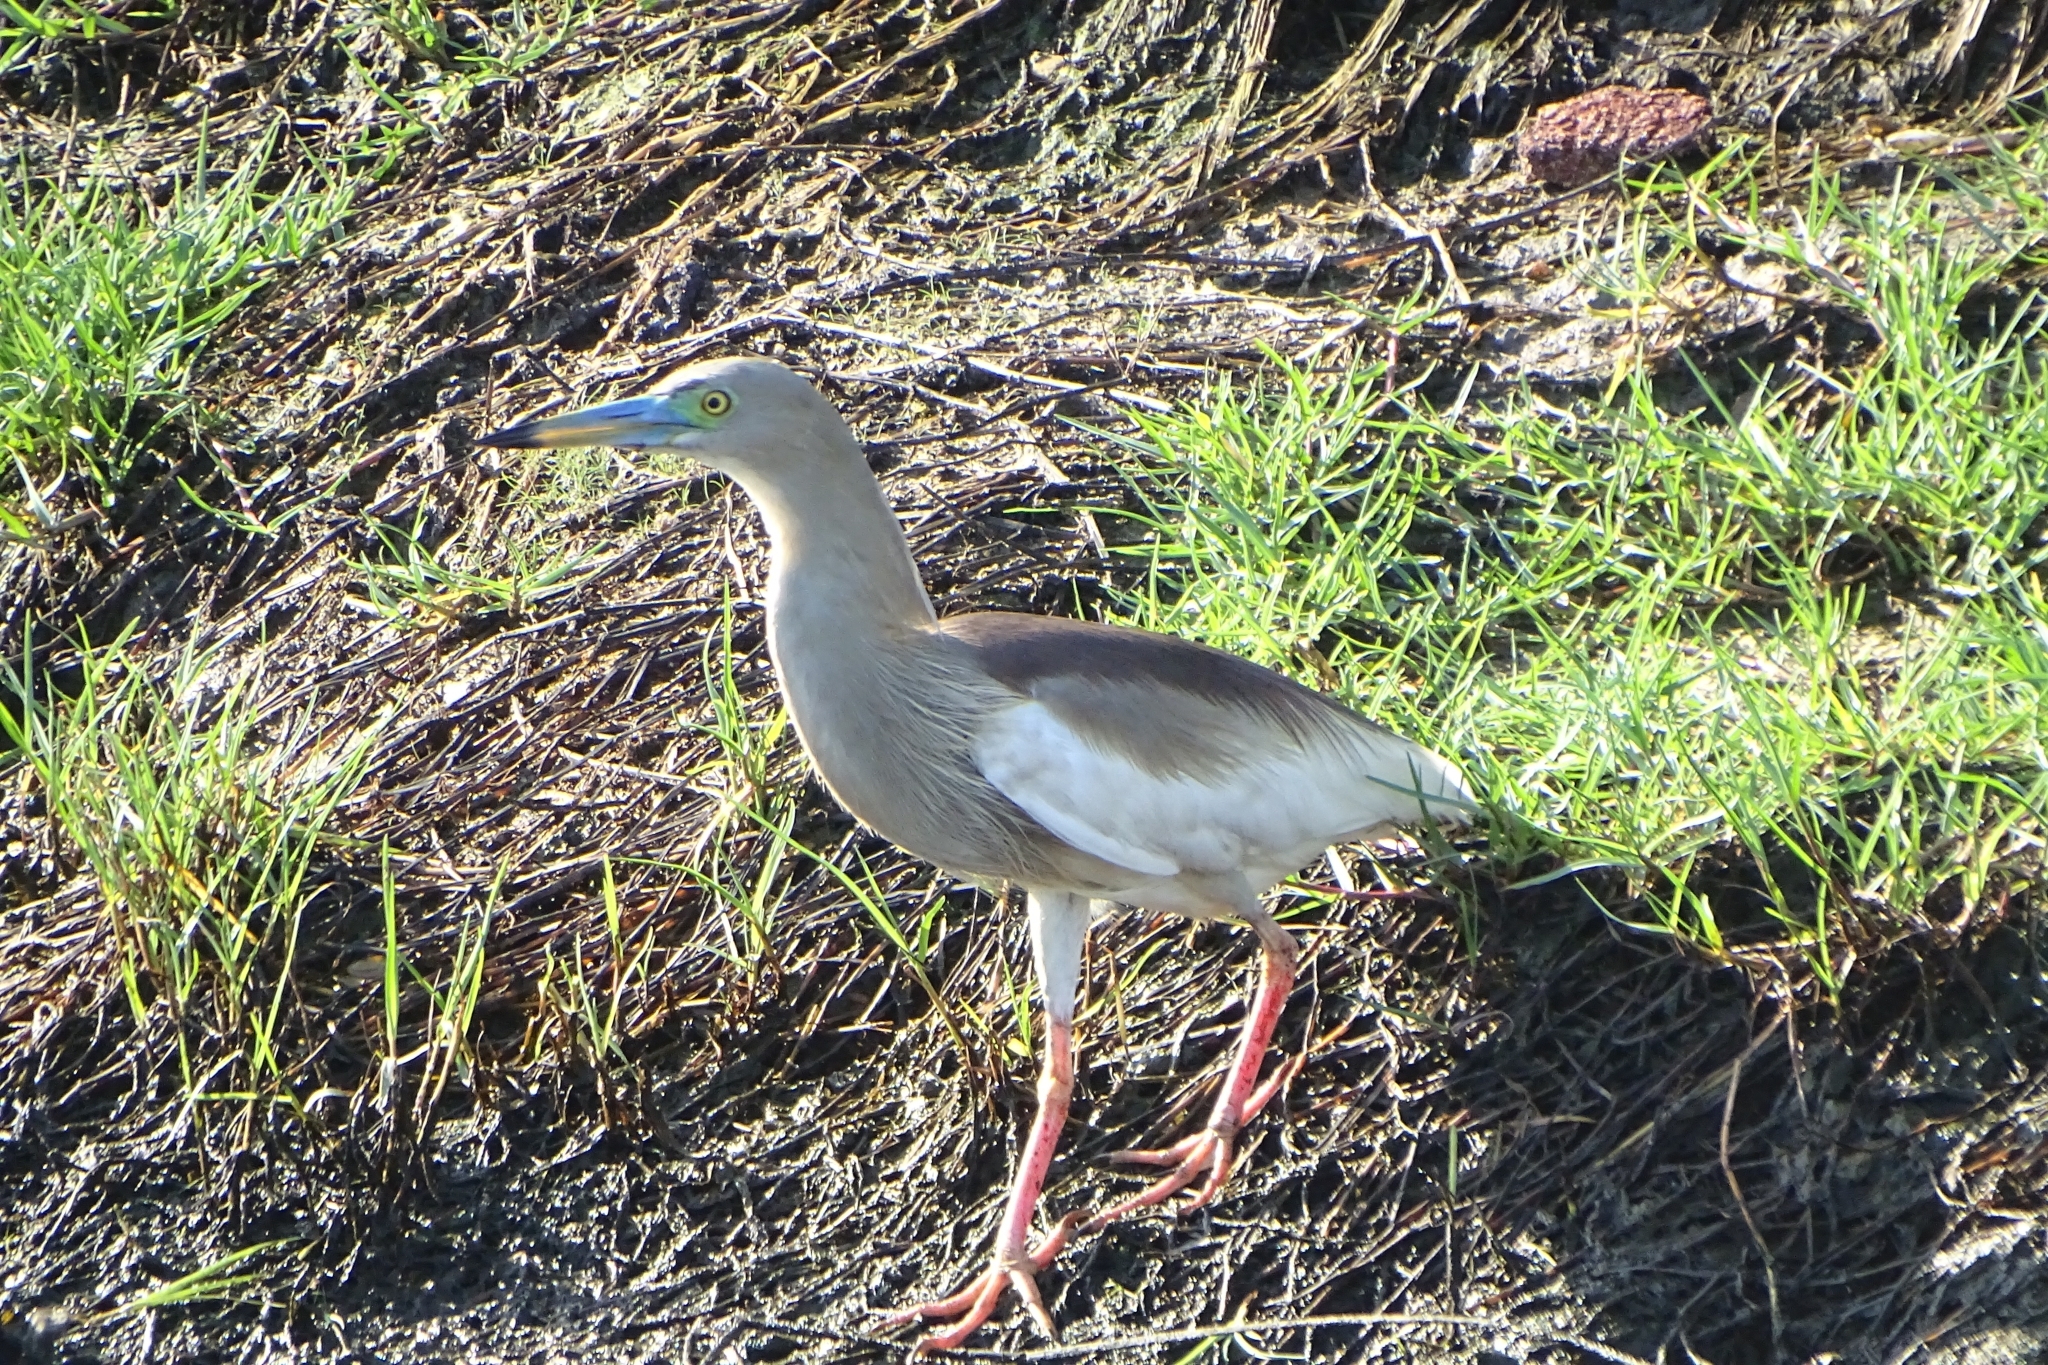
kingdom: Animalia
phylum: Chordata
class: Aves
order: Pelecaniformes
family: Ardeidae
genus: Ardeola
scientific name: Ardeola grayii
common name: Indian pond heron
